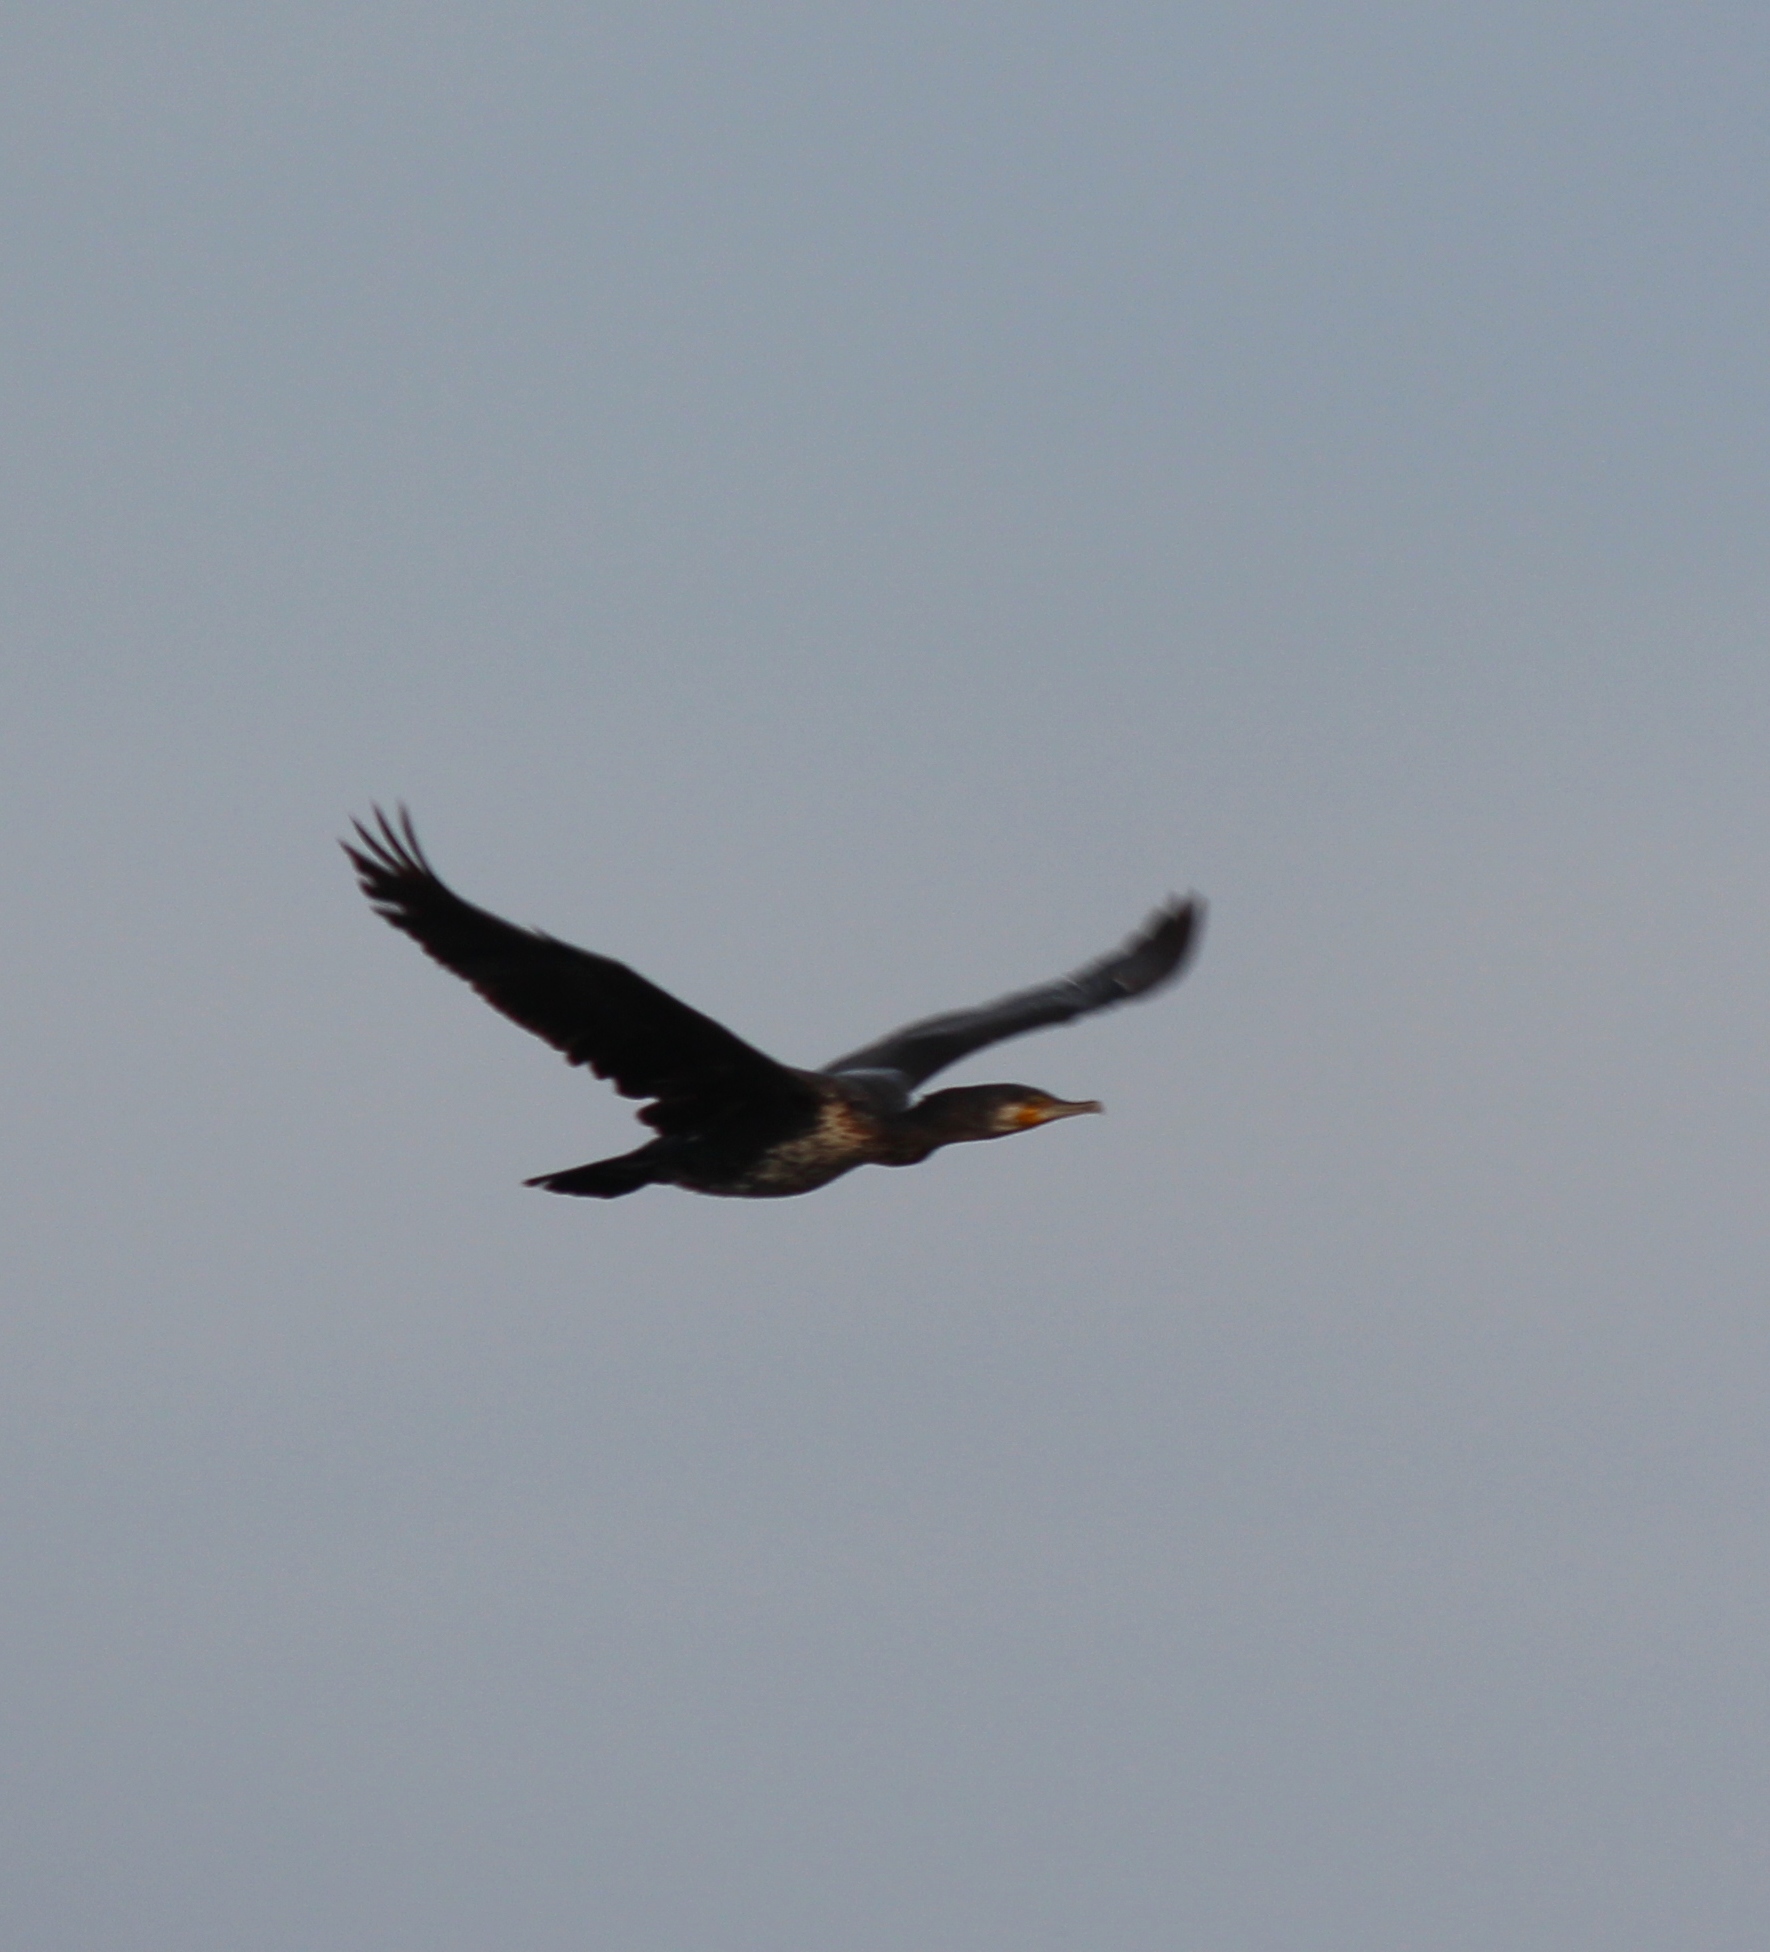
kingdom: Animalia
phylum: Chordata
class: Aves
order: Suliformes
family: Phalacrocoracidae
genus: Phalacrocorax
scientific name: Phalacrocorax carbo
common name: Great cormorant
